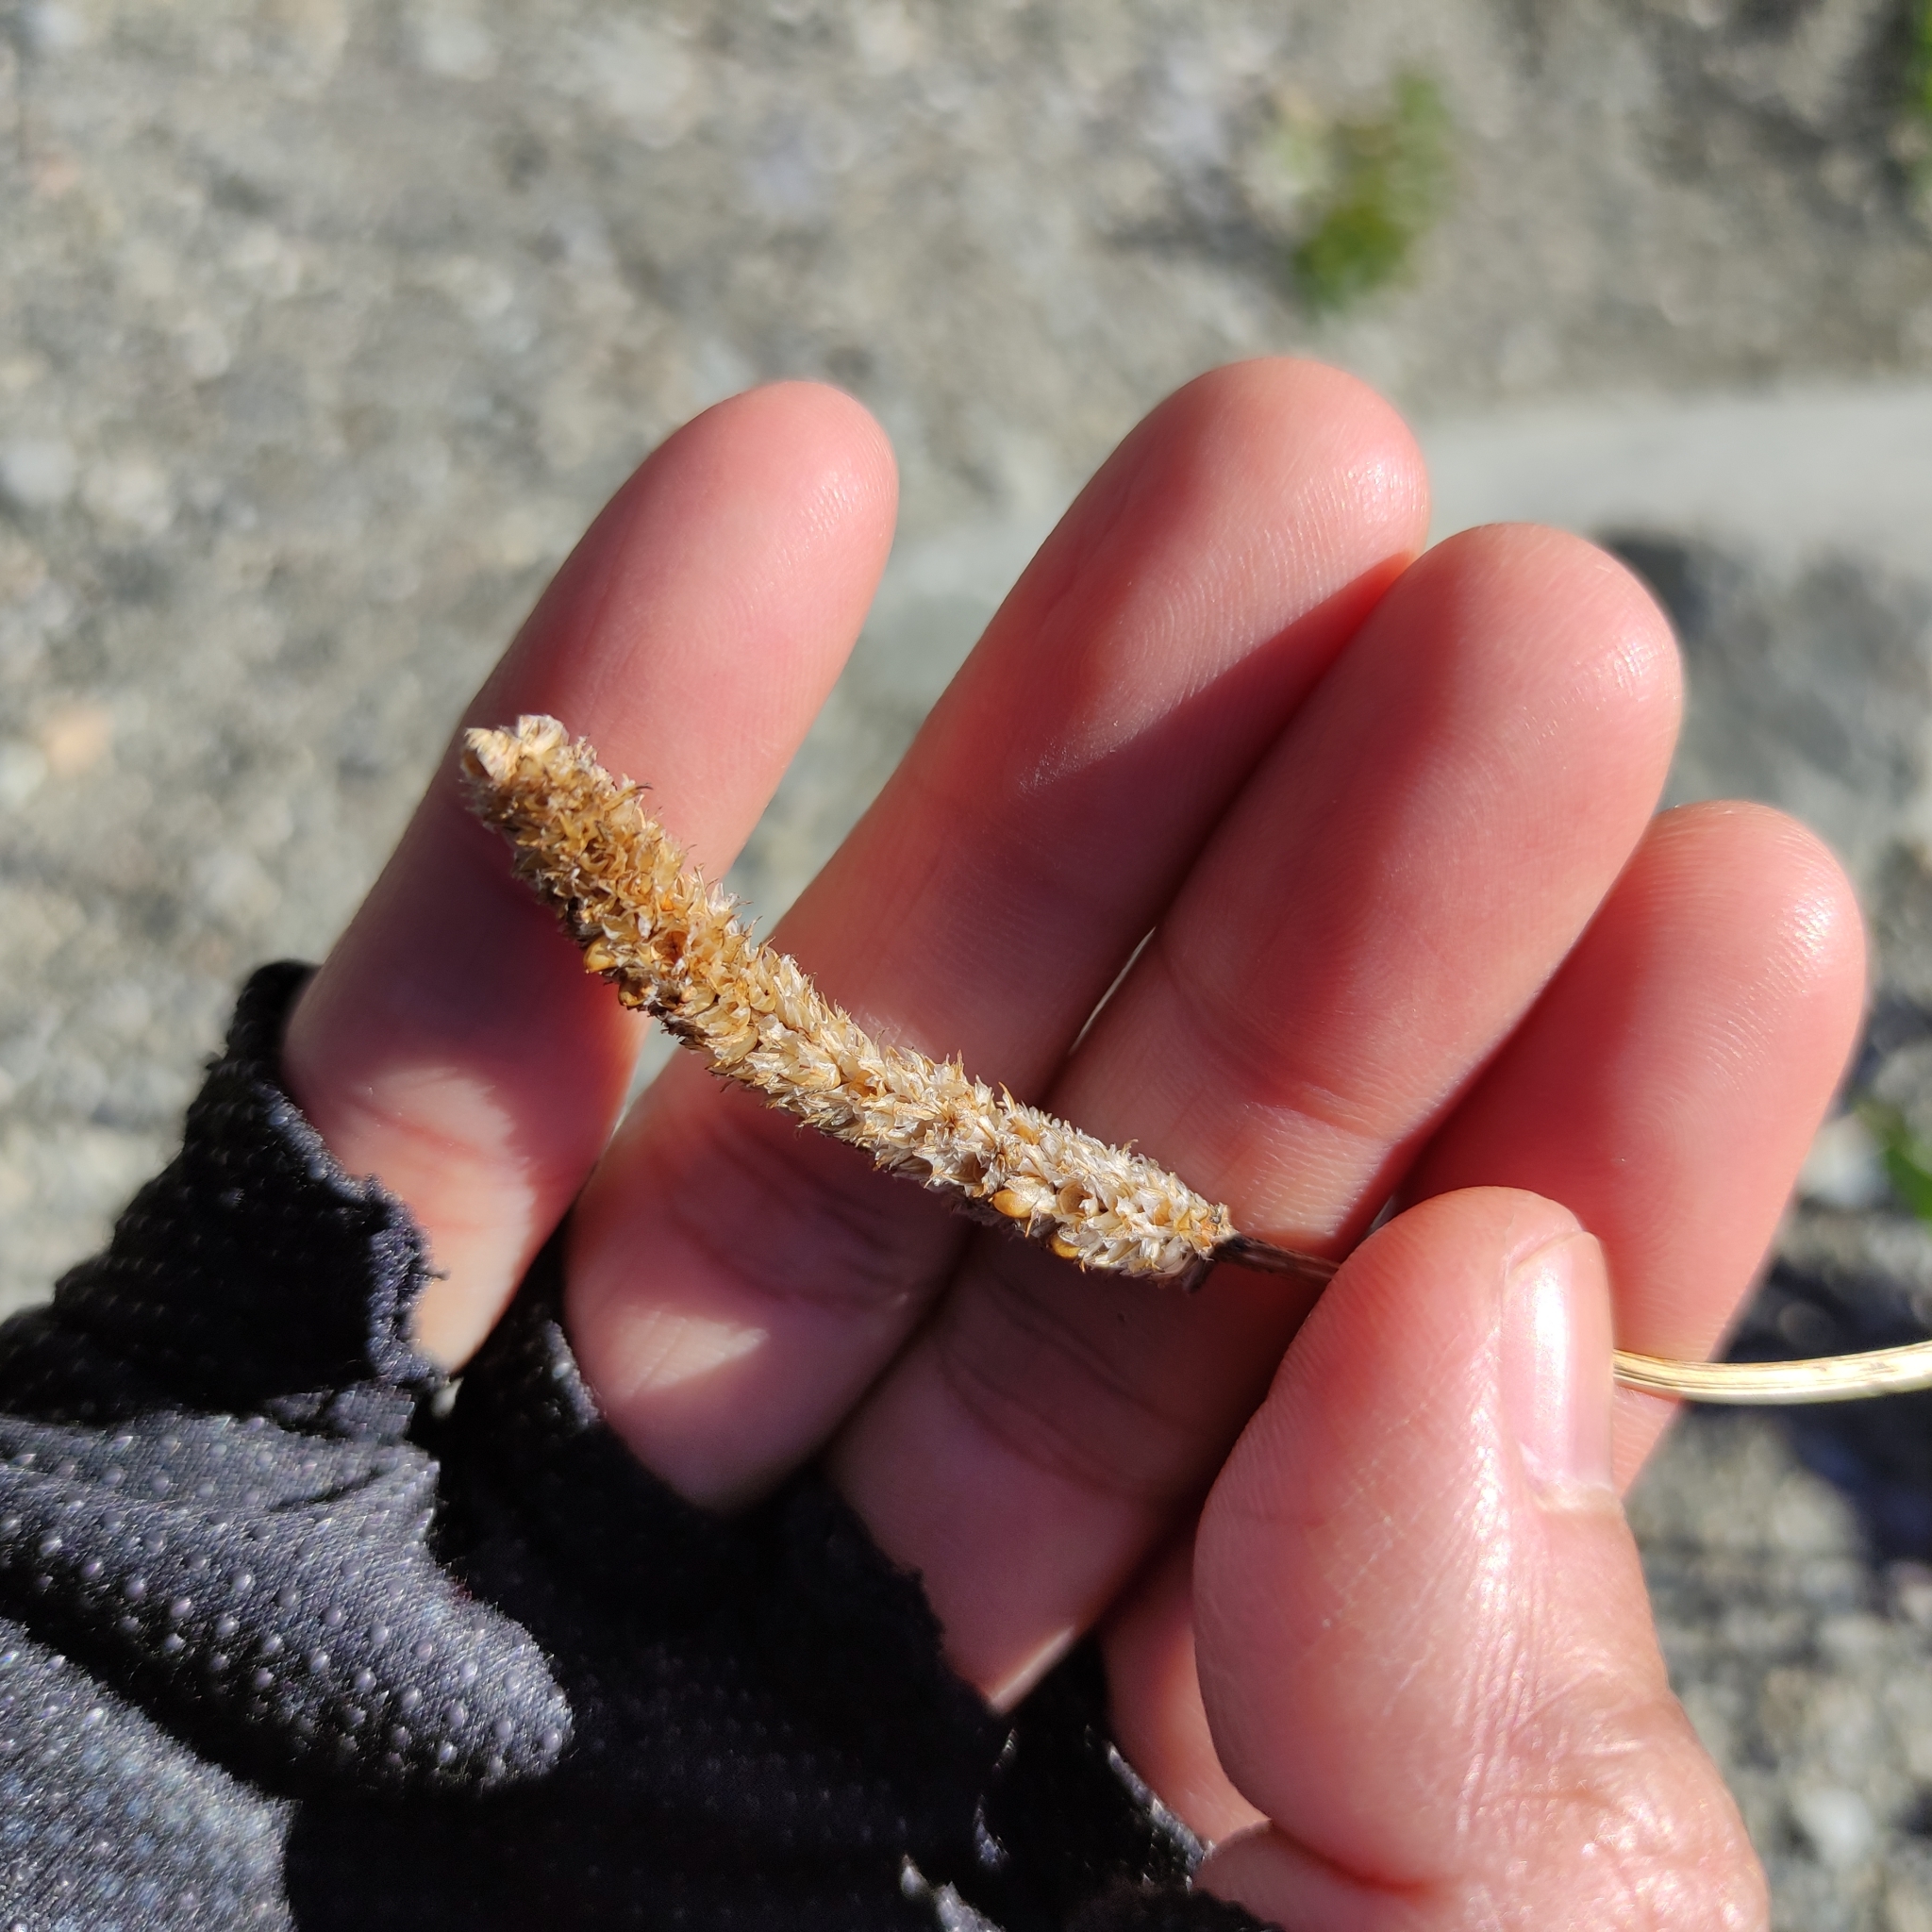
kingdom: Plantae
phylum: Tracheophyta
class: Magnoliopsida
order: Lamiales
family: Plantaginaceae
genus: Plantago
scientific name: Plantago lanceolata
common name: Ribwort plantain
